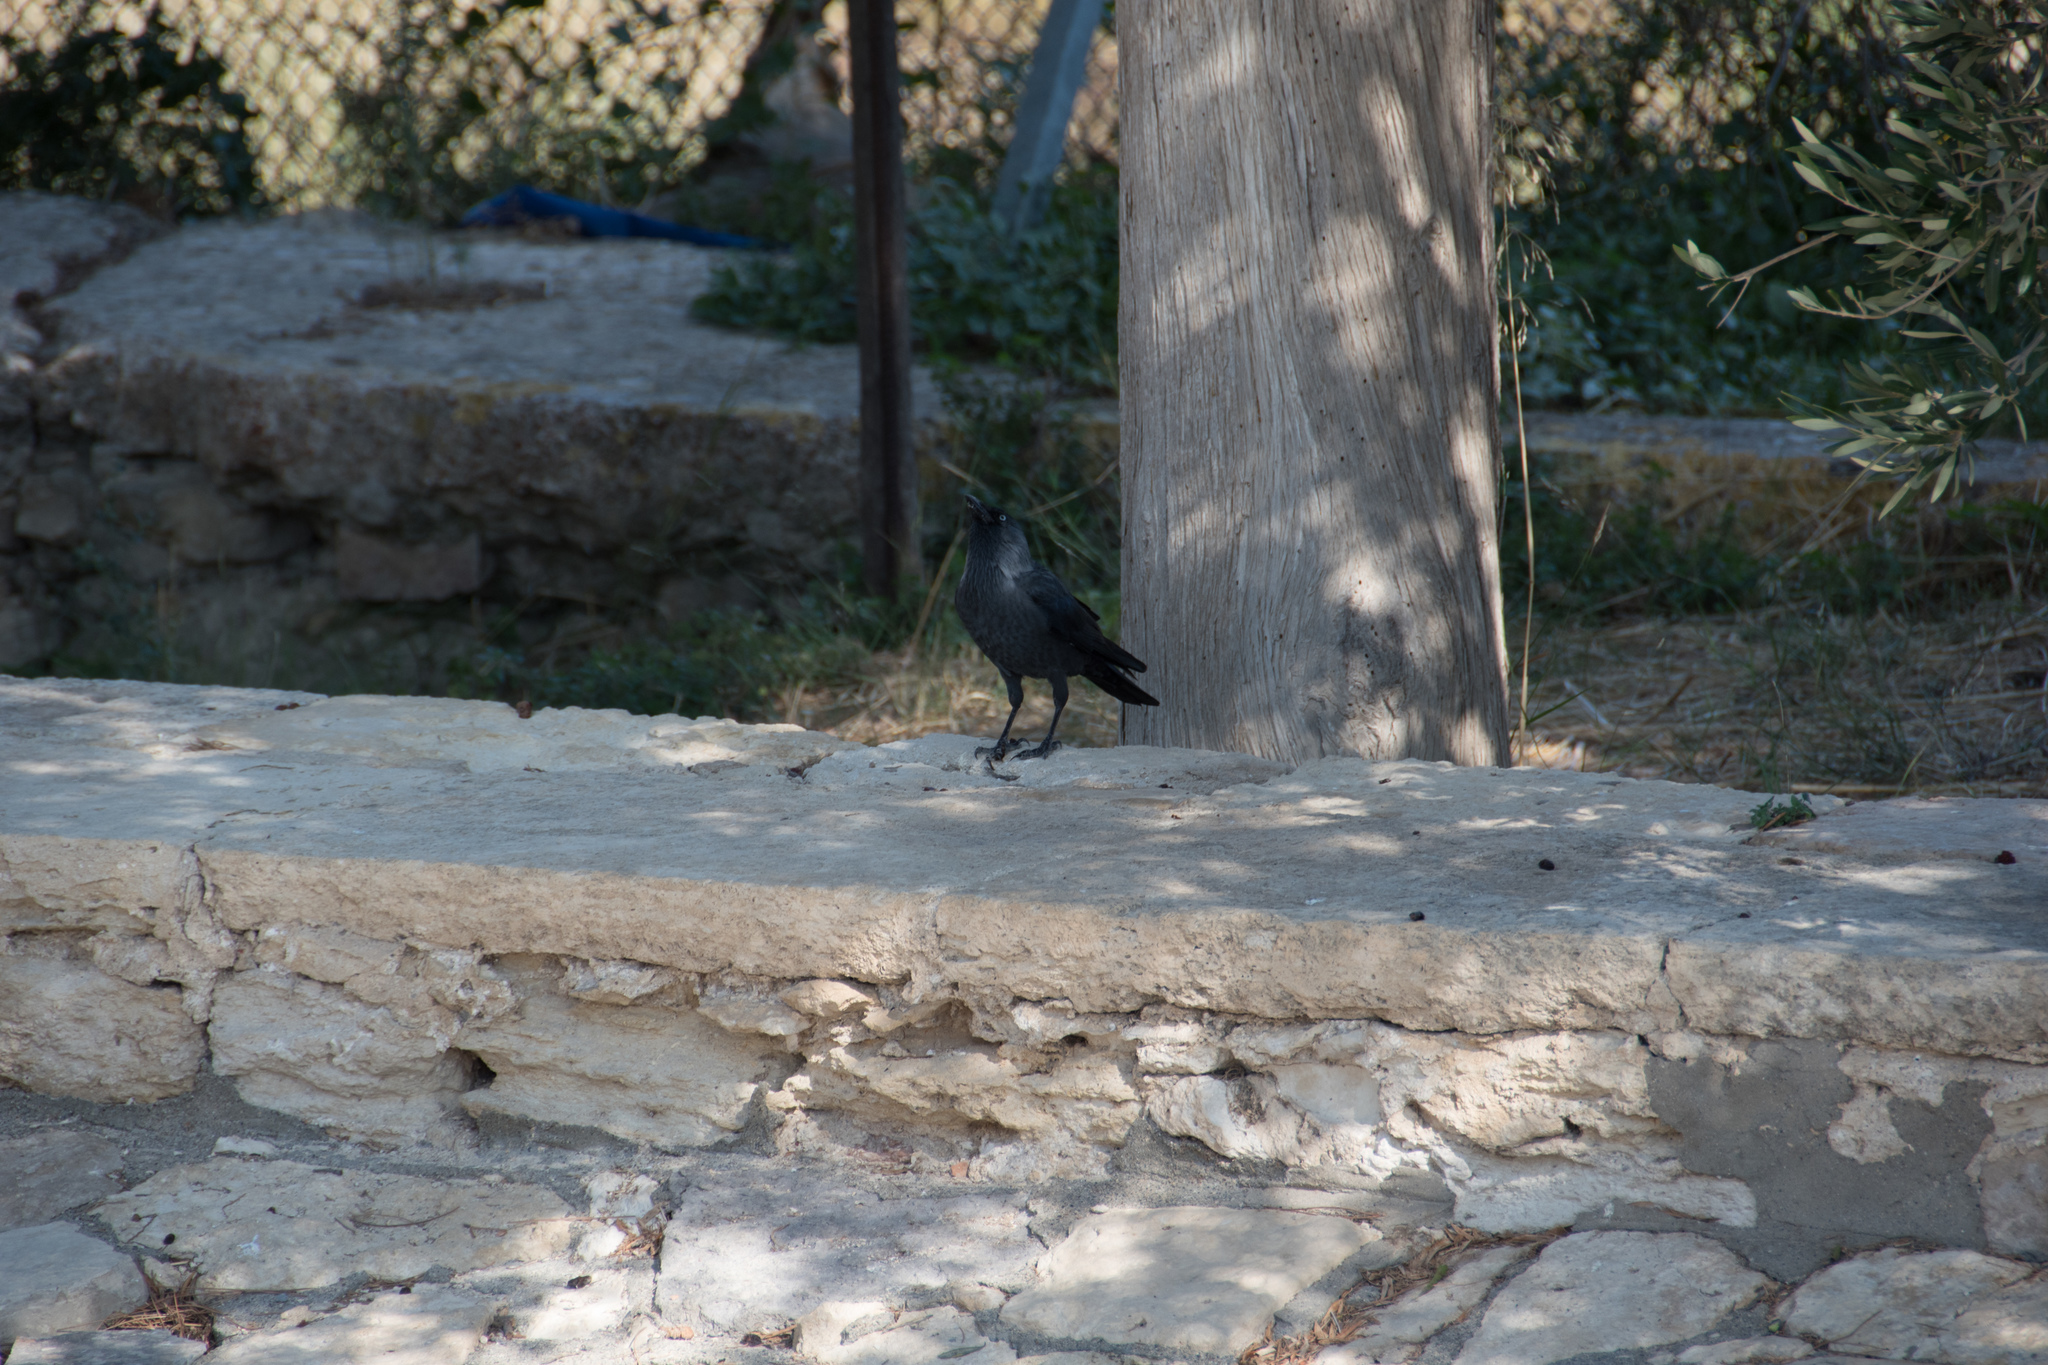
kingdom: Animalia
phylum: Chordata
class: Aves
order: Passeriformes
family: Corvidae
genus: Coloeus
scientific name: Coloeus monedula
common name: Western jackdaw
